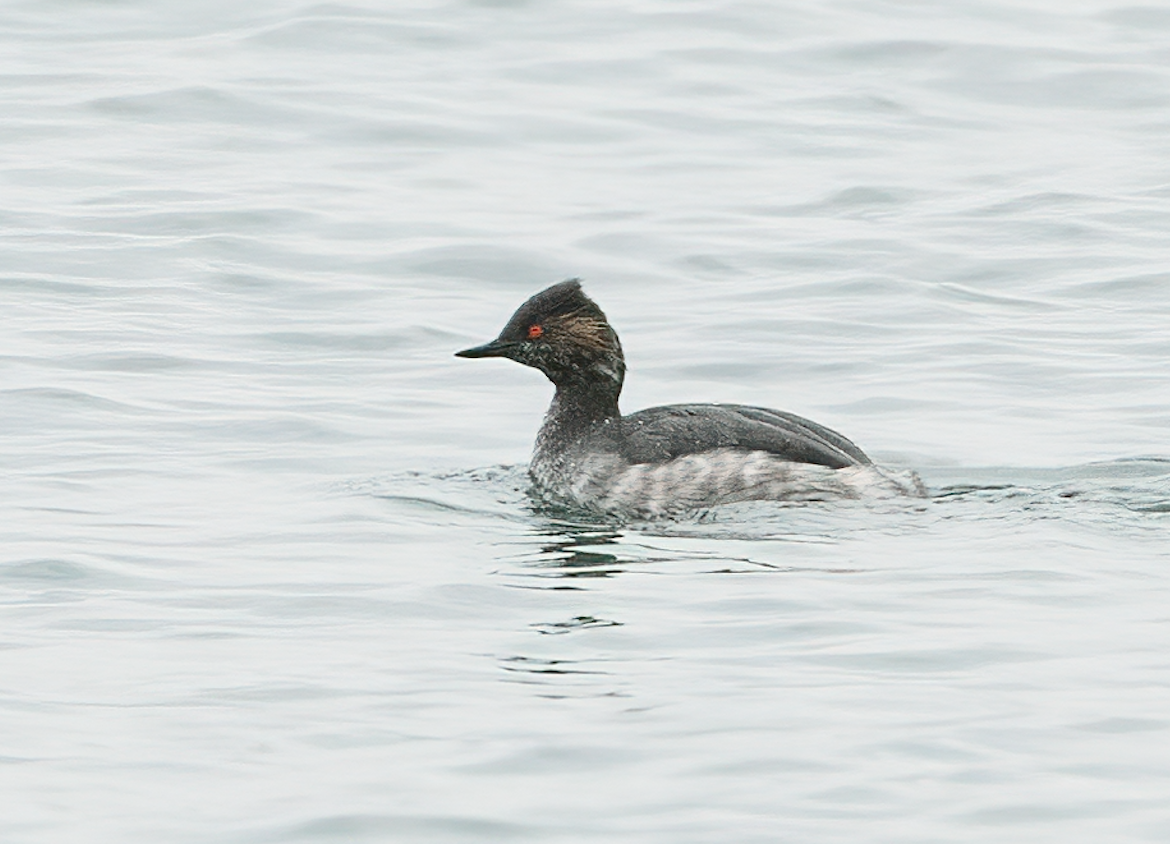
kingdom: Animalia
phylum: Chordata
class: Aves
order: Podicipediformes
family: Podicipedidae
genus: Podiceps
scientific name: Podiceps nigricollis
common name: Black-necked grebe
